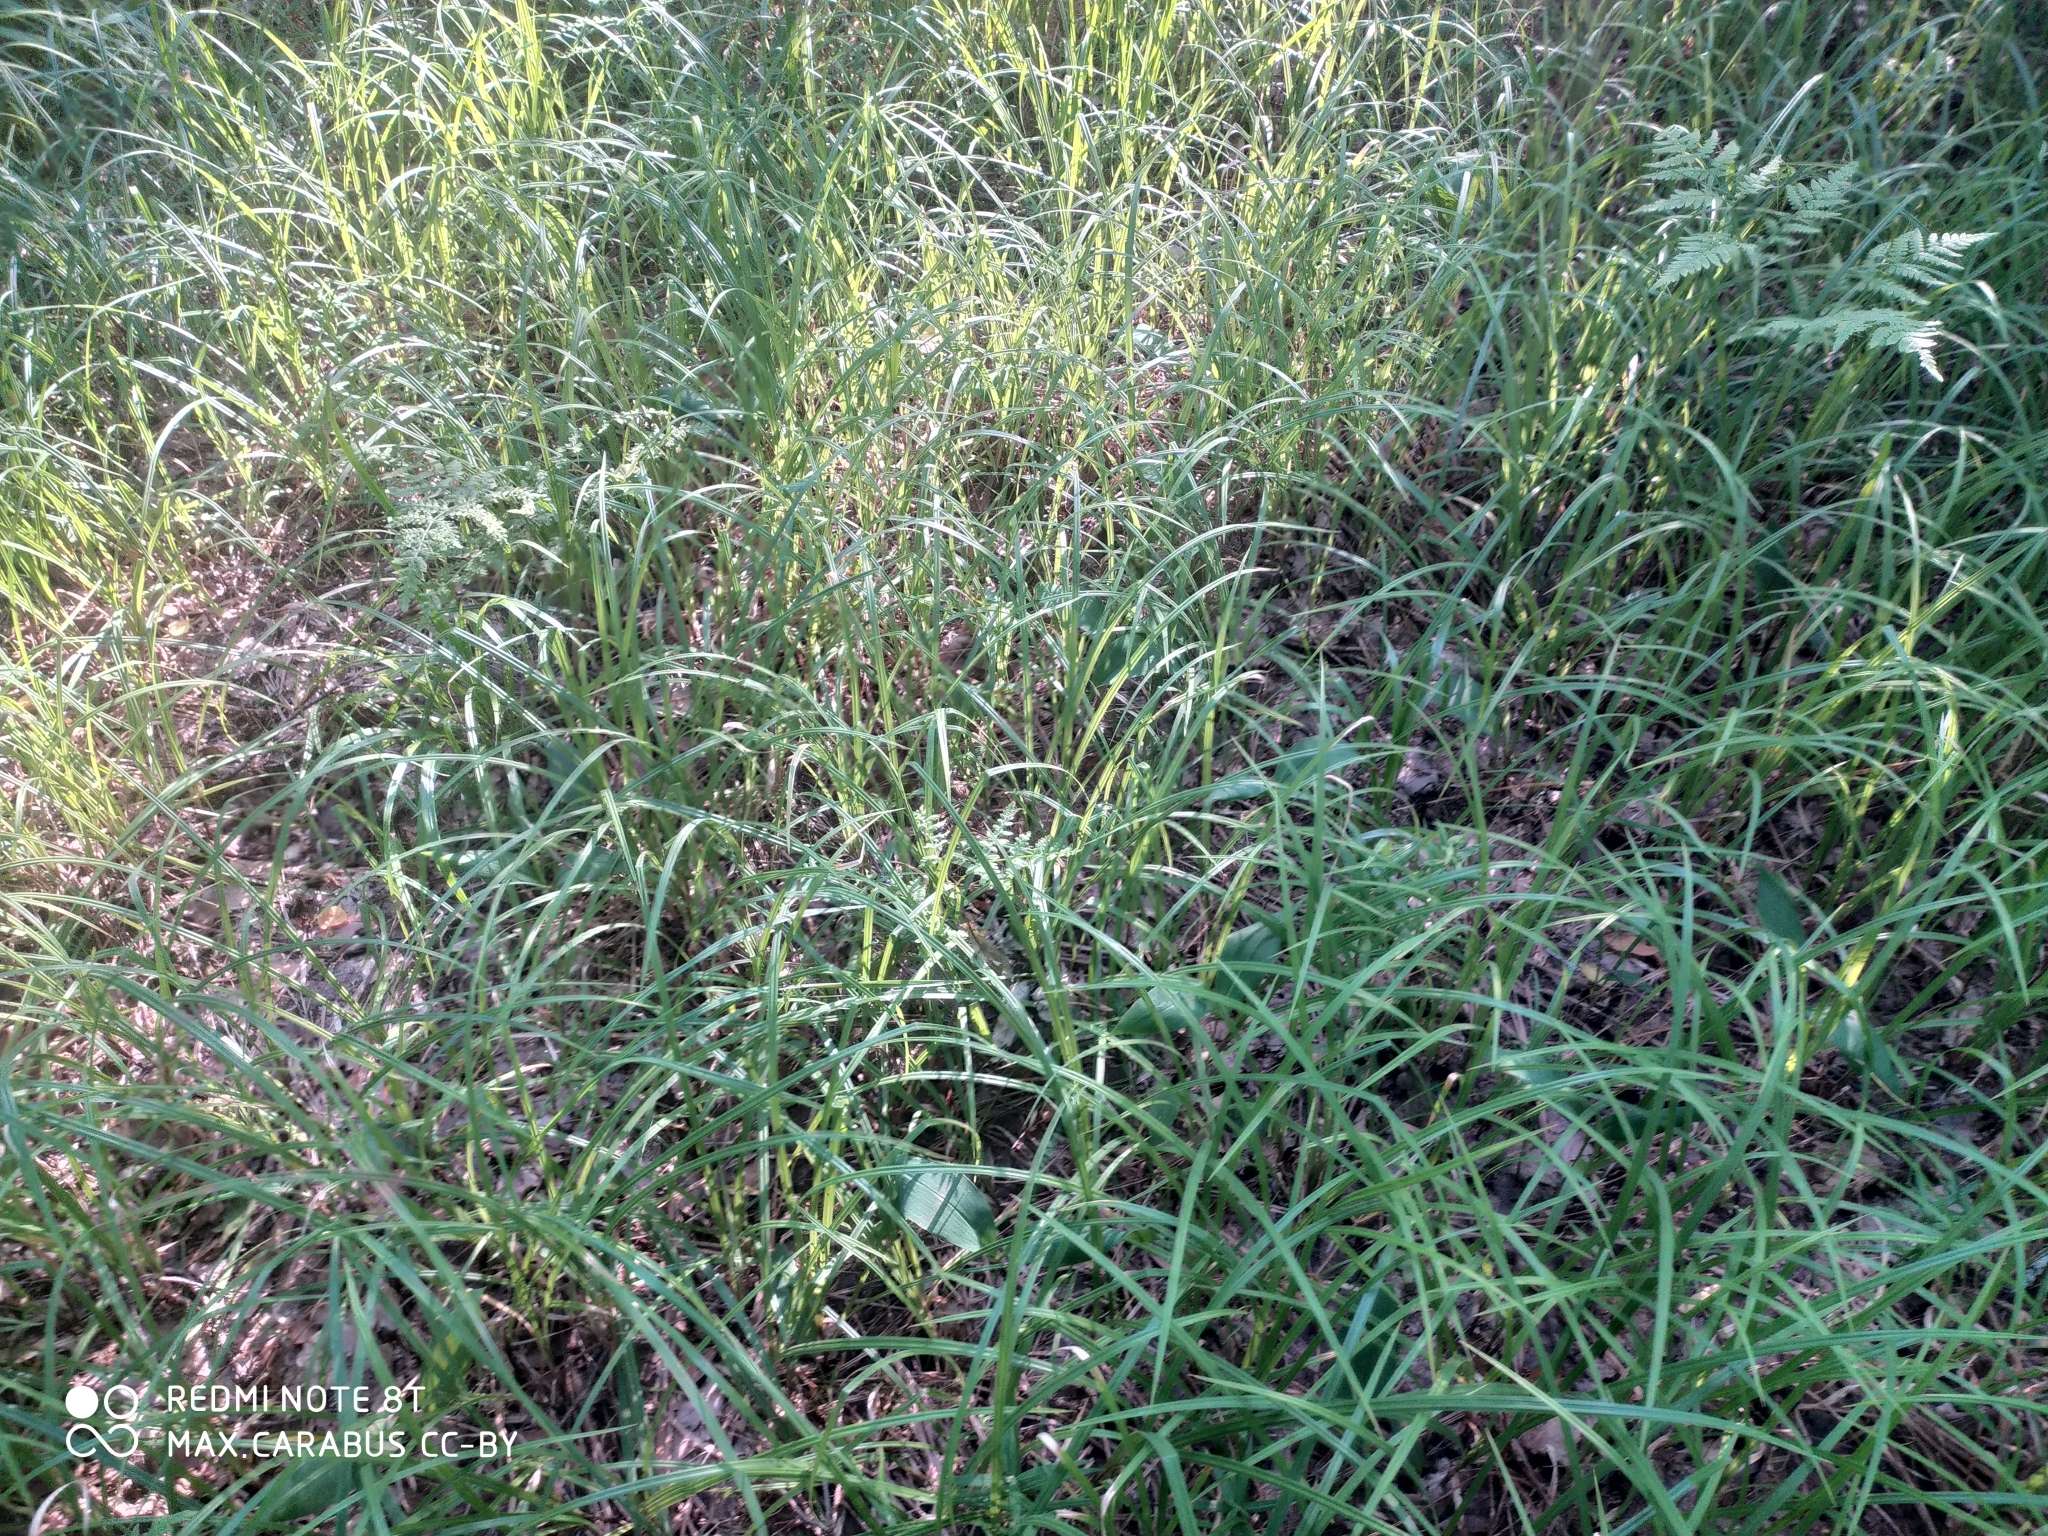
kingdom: Plantae
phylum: Tracheophyta
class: Liliopsida
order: Poales
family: Cyperaceae
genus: Carex
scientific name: Carex pilosa
